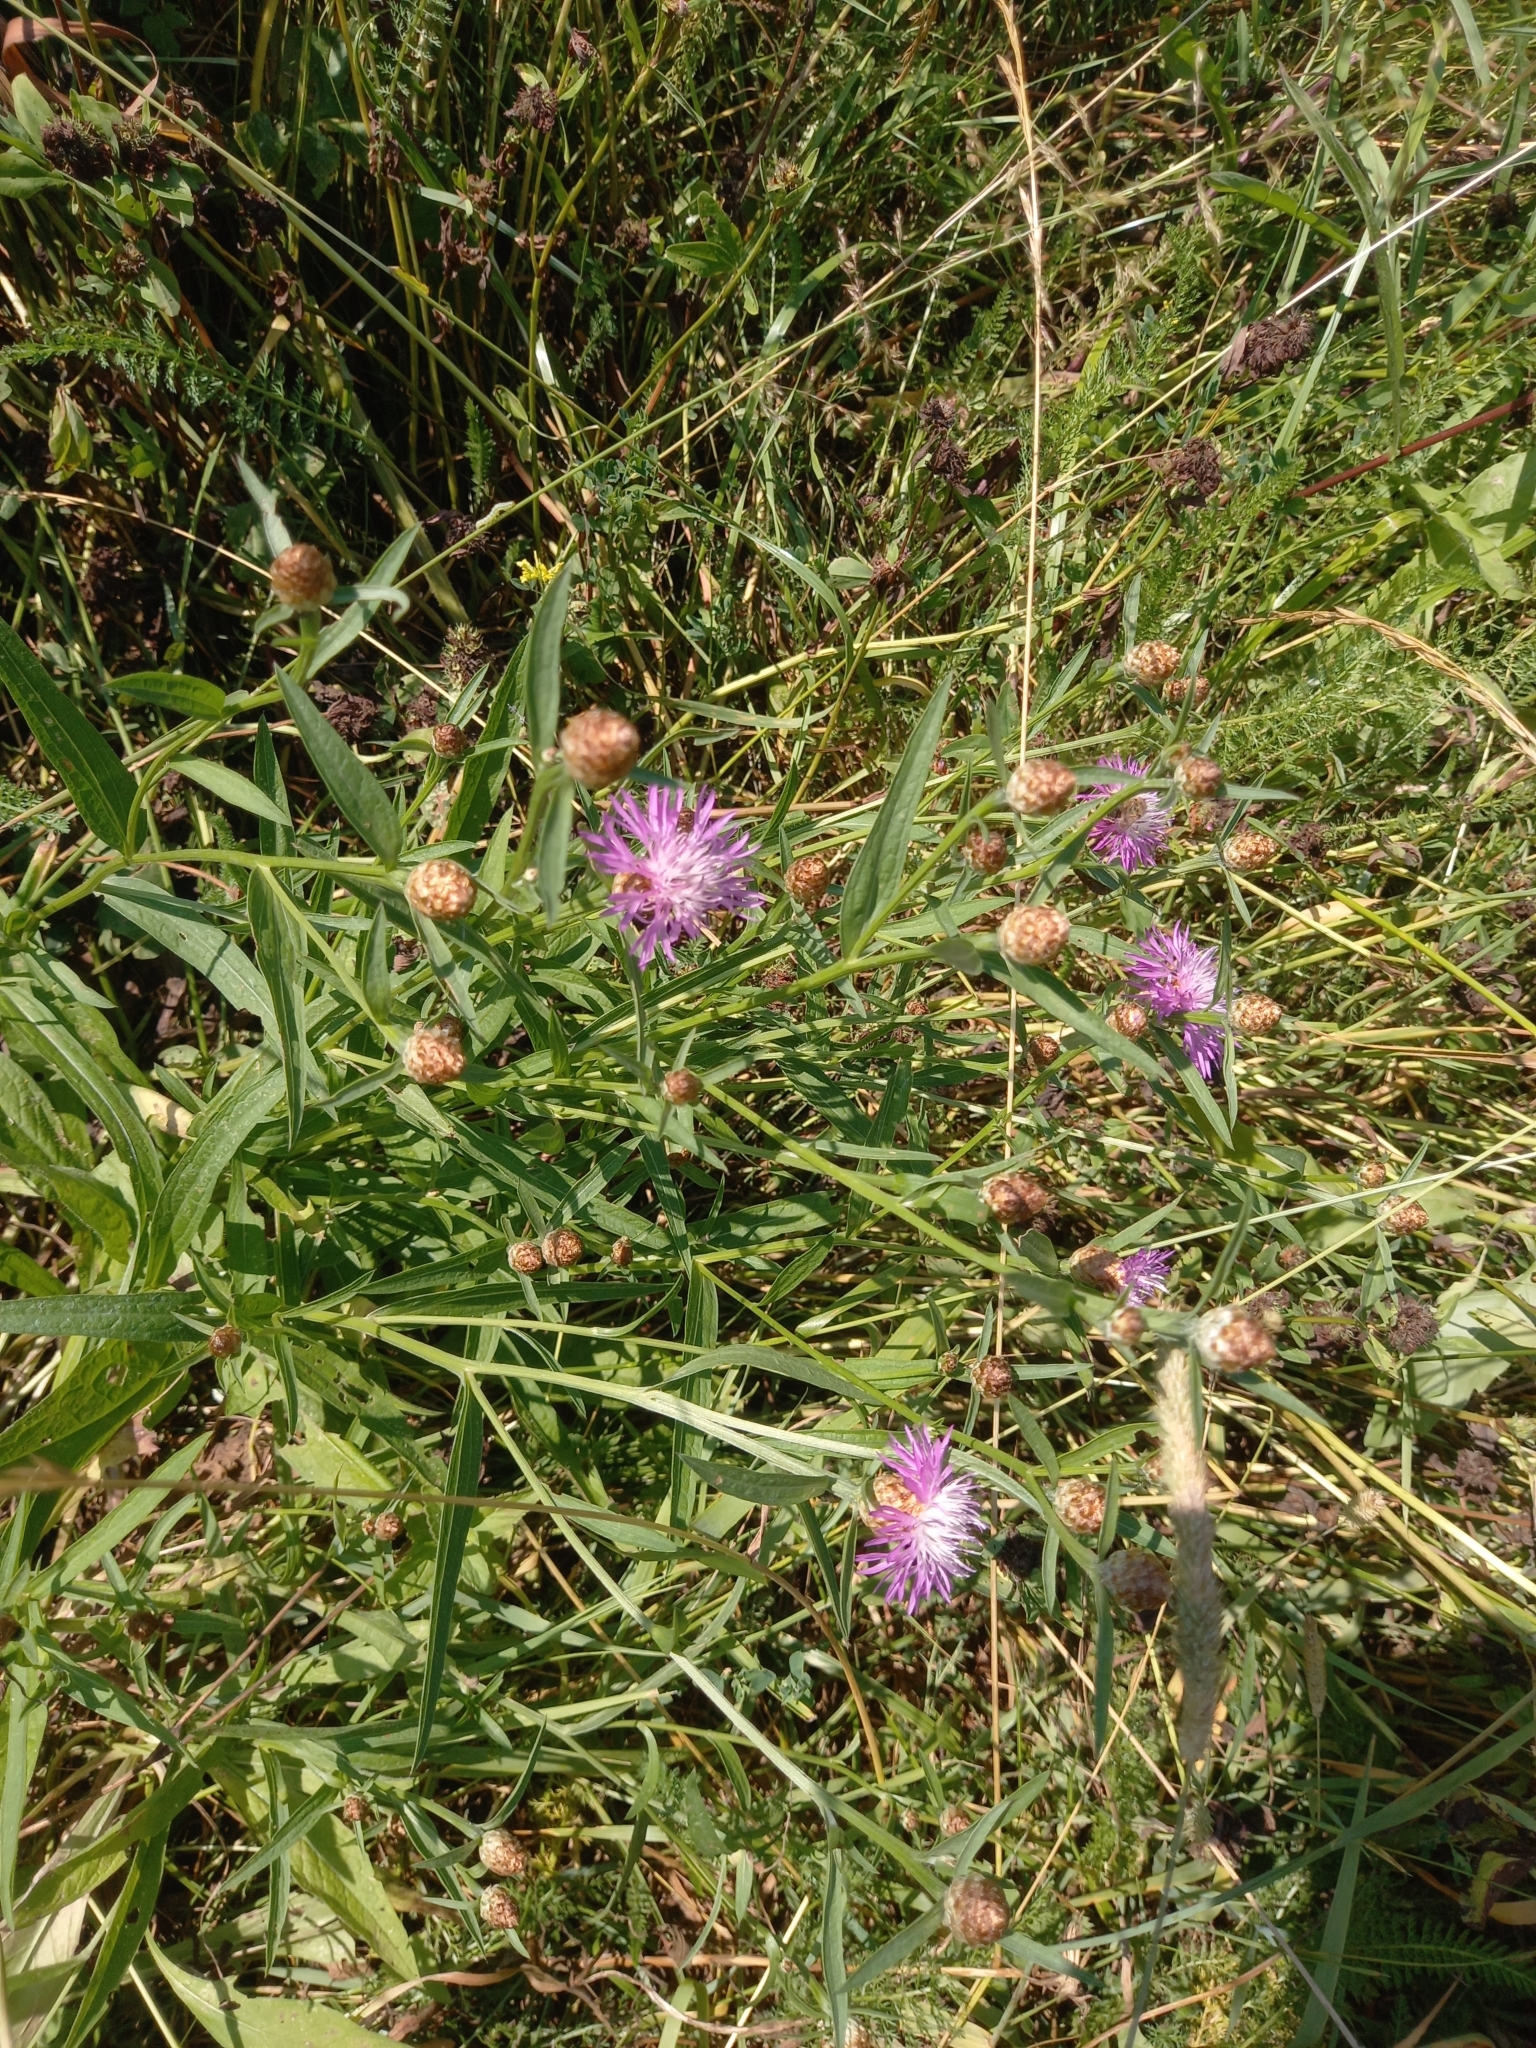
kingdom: Plantae
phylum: Tracheophyta
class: Magnoliopsida
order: Asterales
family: Asteraceae
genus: Centaurea
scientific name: Centaurea jacea
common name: Brown knapweed
